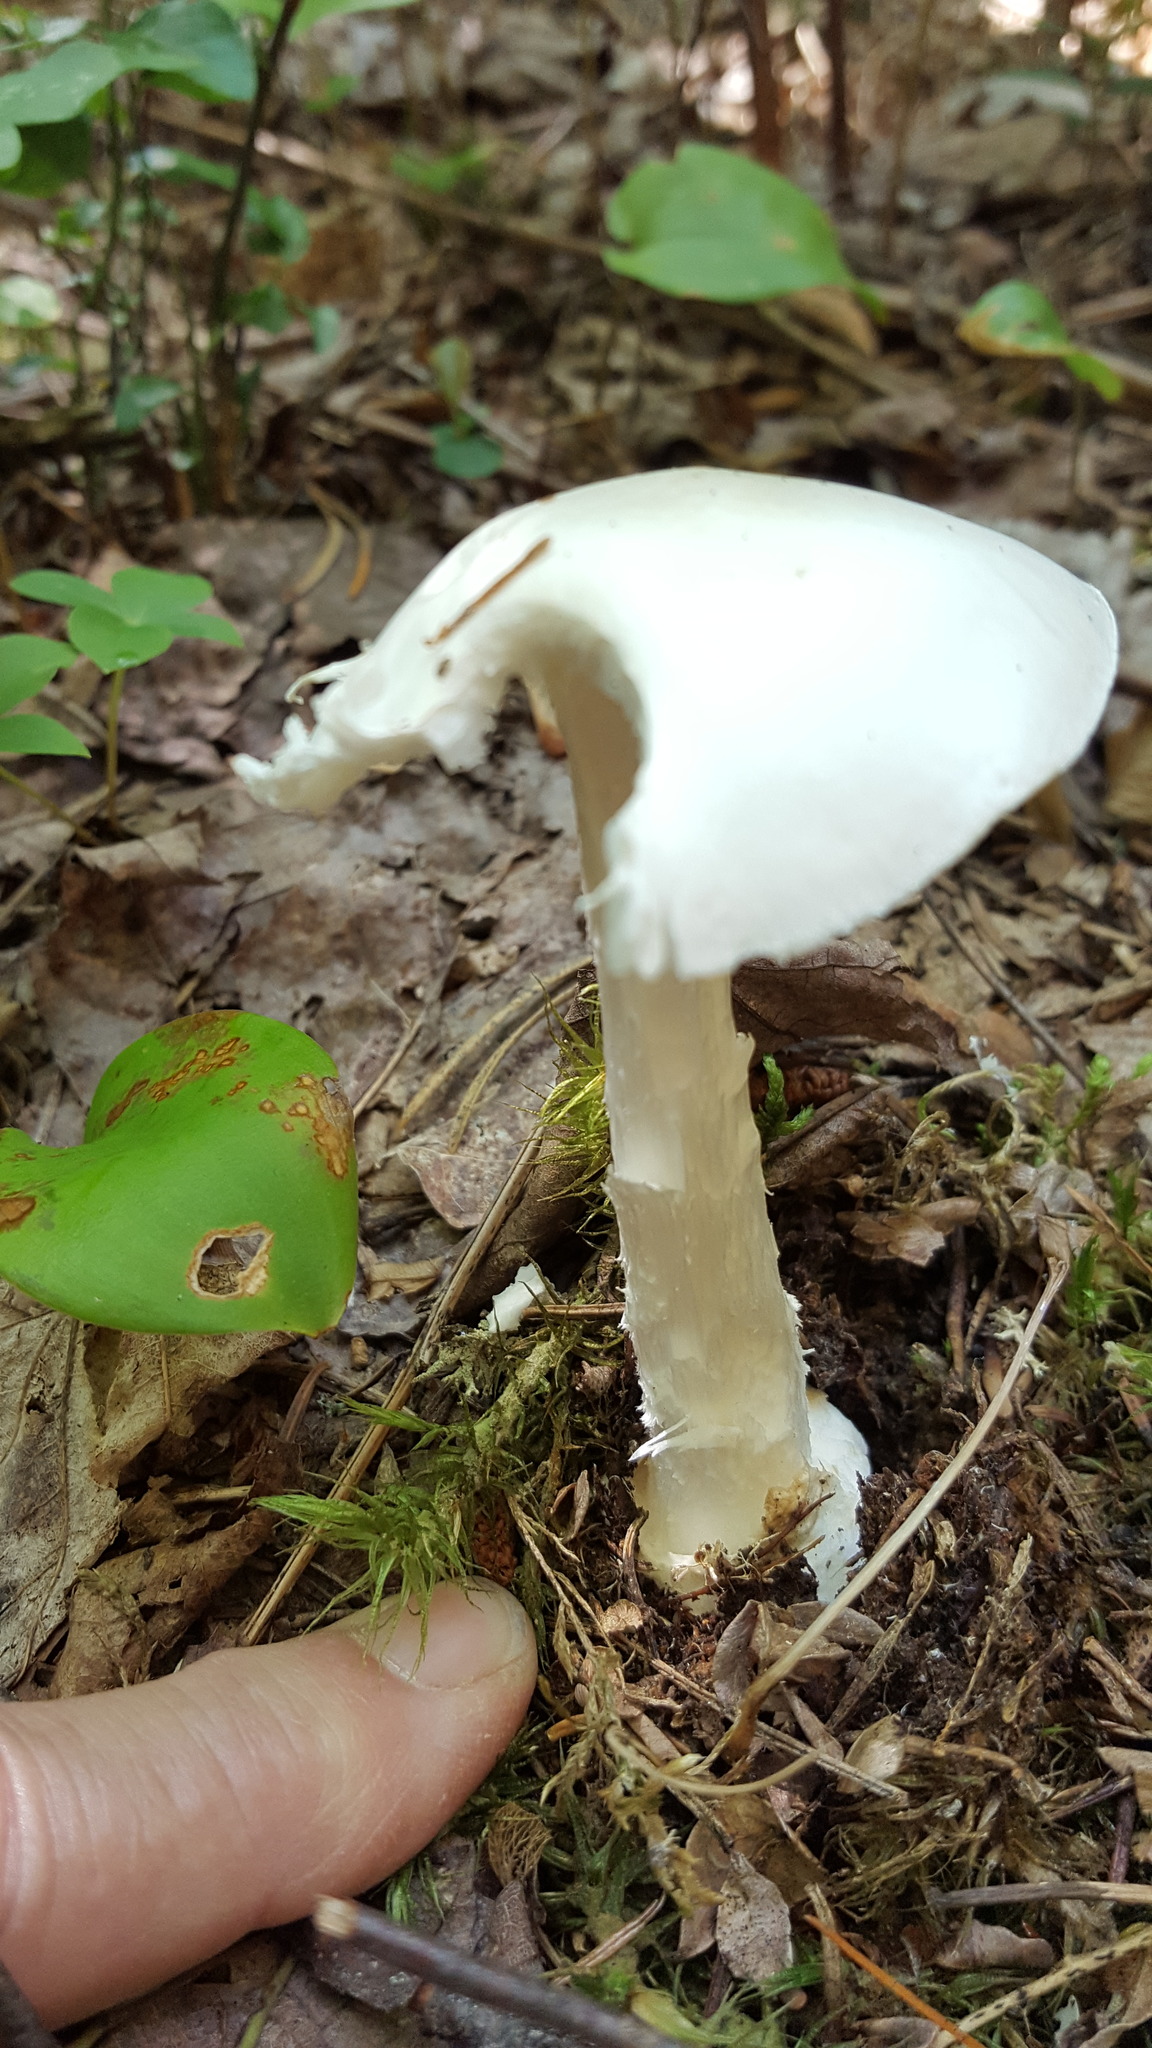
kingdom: Fungi
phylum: Basidiomycota
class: Agaricomycetes
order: Agaricales
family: Amanitaceae
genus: Amanita
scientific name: Amanita bisporigera
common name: Eastern north american destroying angel
